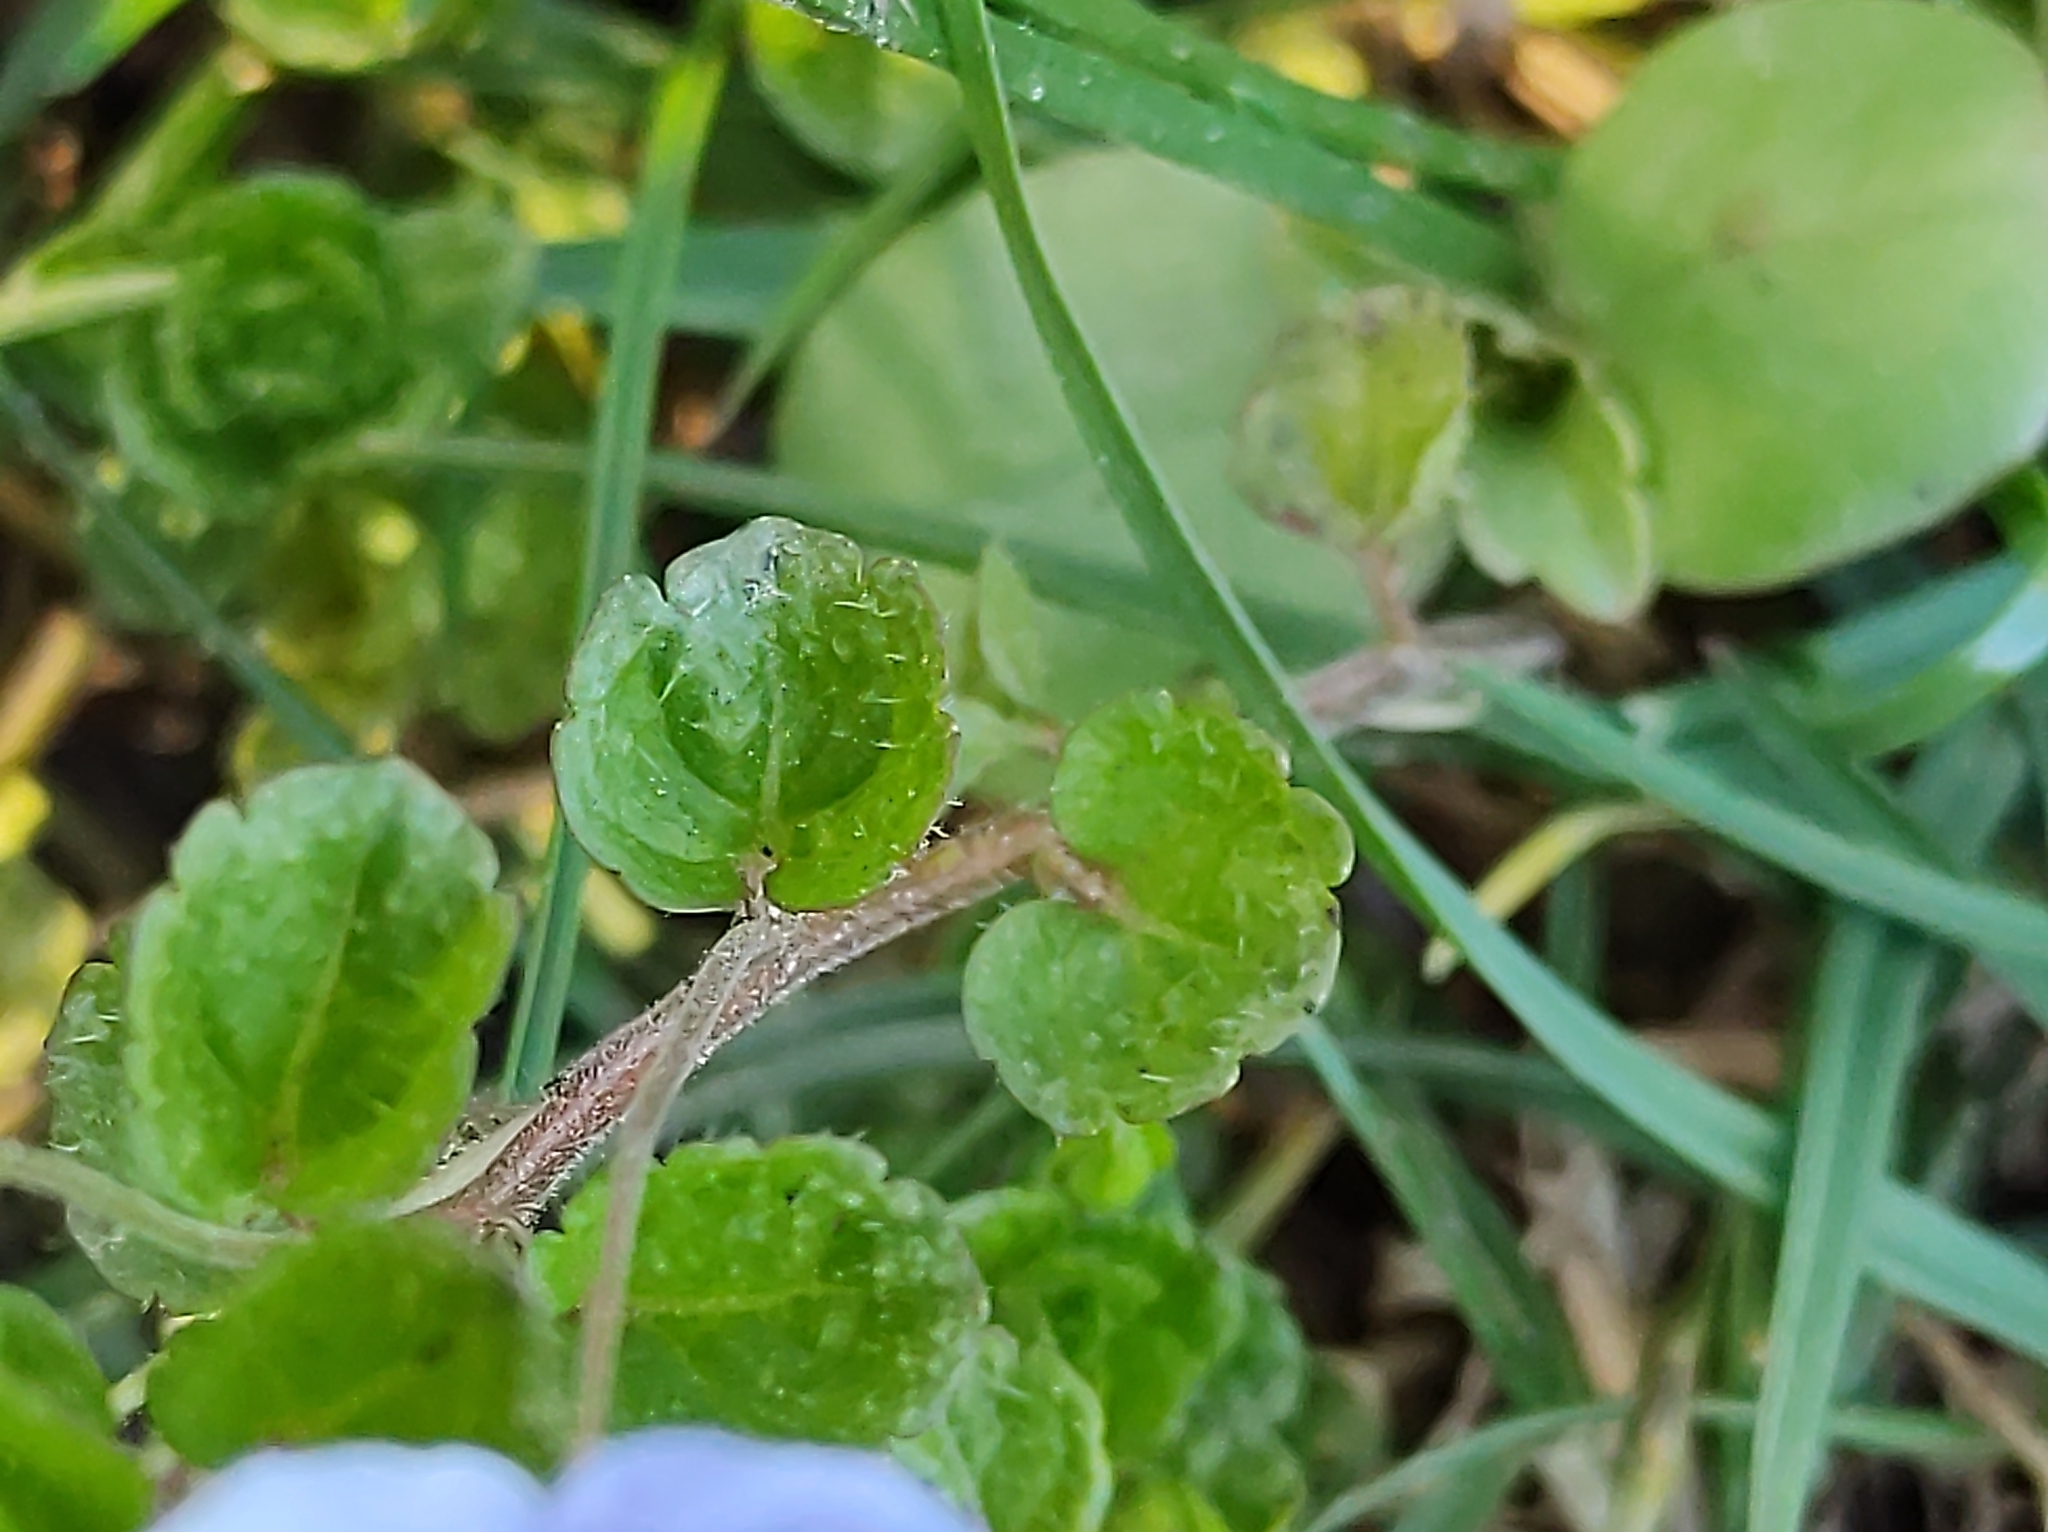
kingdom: Plantae
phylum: Tracheophyta
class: Magnoliopsida
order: Lamiales
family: Plantaginaceae
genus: Veronica
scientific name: Veronica filiformis
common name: Slender speedwell
